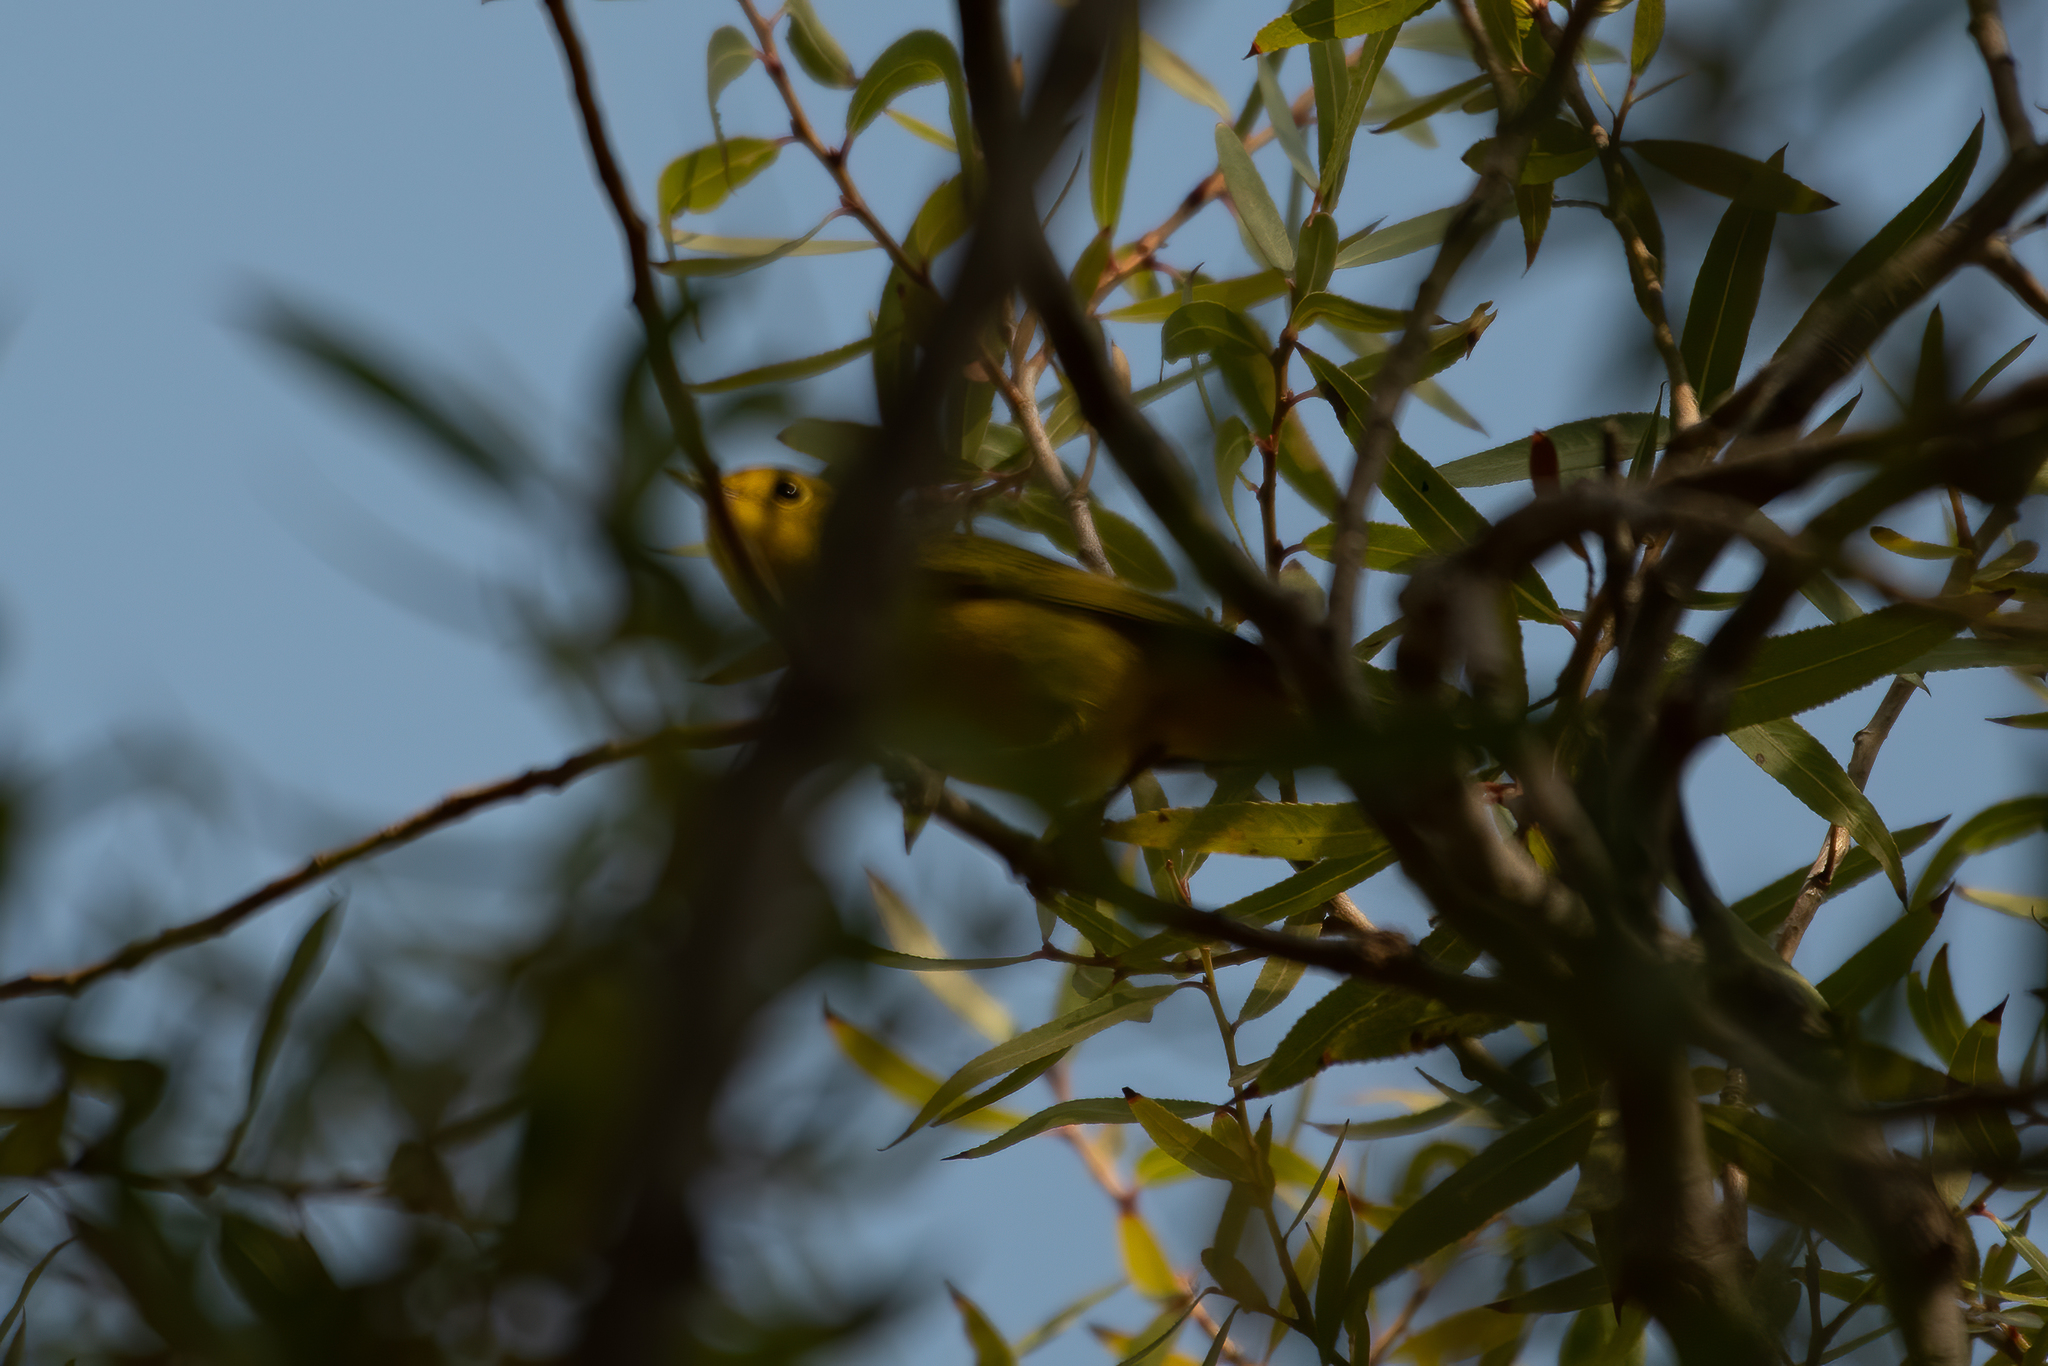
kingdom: Animalia
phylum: Chordata
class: Aves
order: Passeriformes
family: Parulidae
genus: Cardellina
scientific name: Cardellina pusilla
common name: Wilson's warbler
